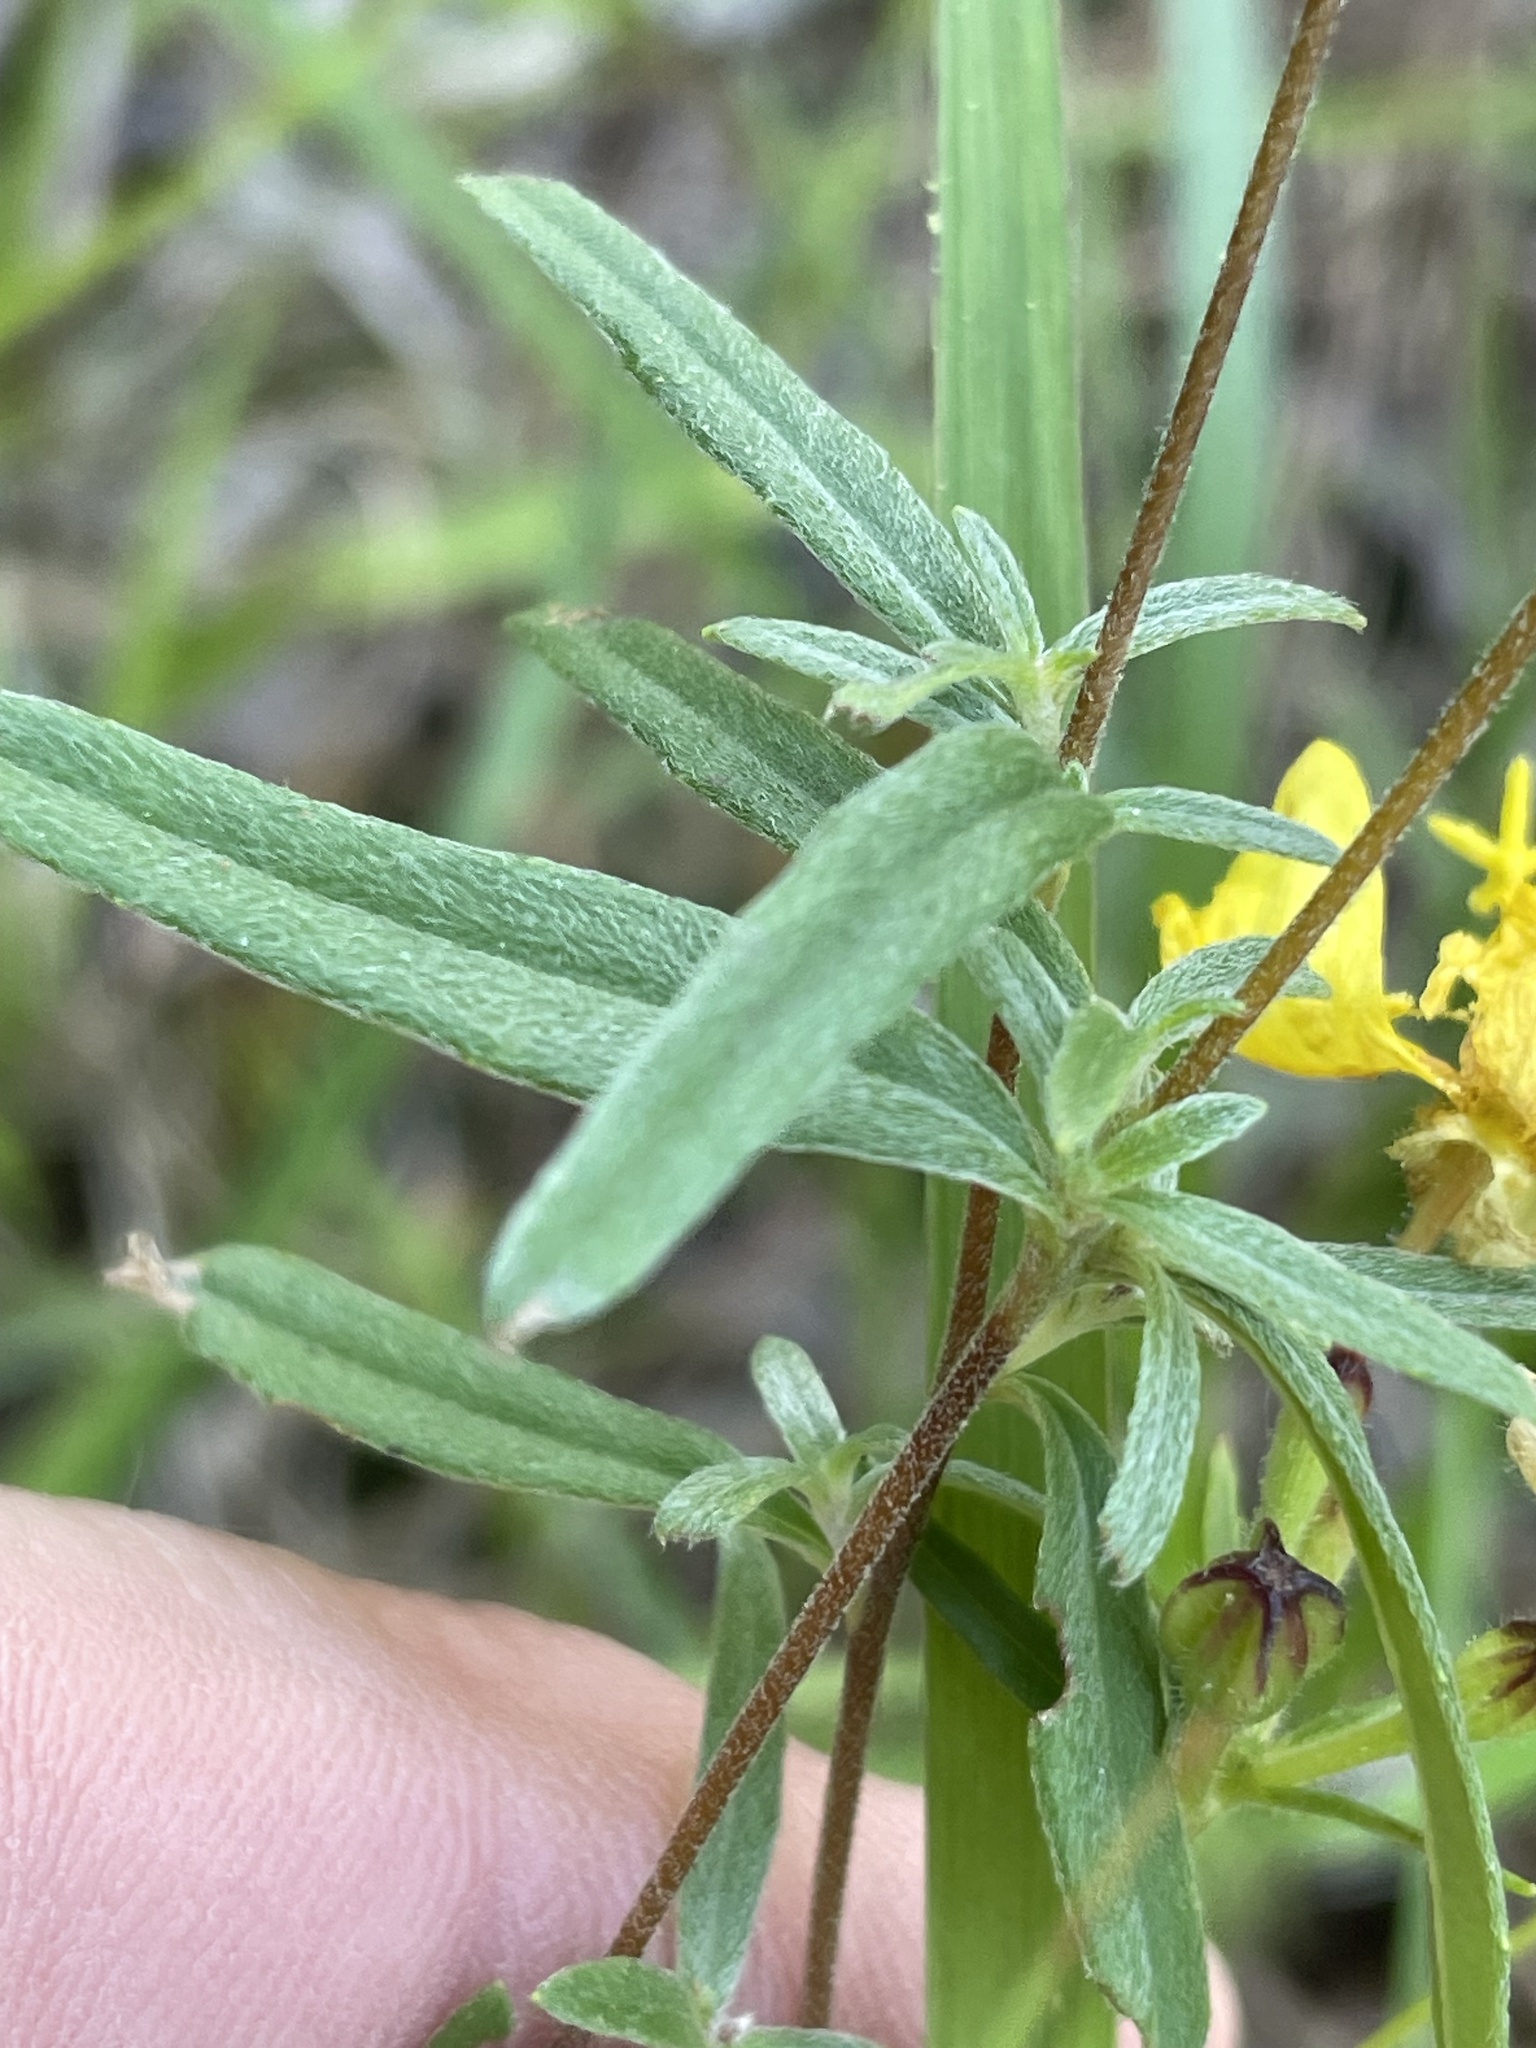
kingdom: Plantae
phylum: Tracheophyta
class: Magnoliopsida
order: Myrtales
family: Onagraceae
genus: Oenothera
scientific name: Oenothera fruticosa
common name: Southern sundrops
